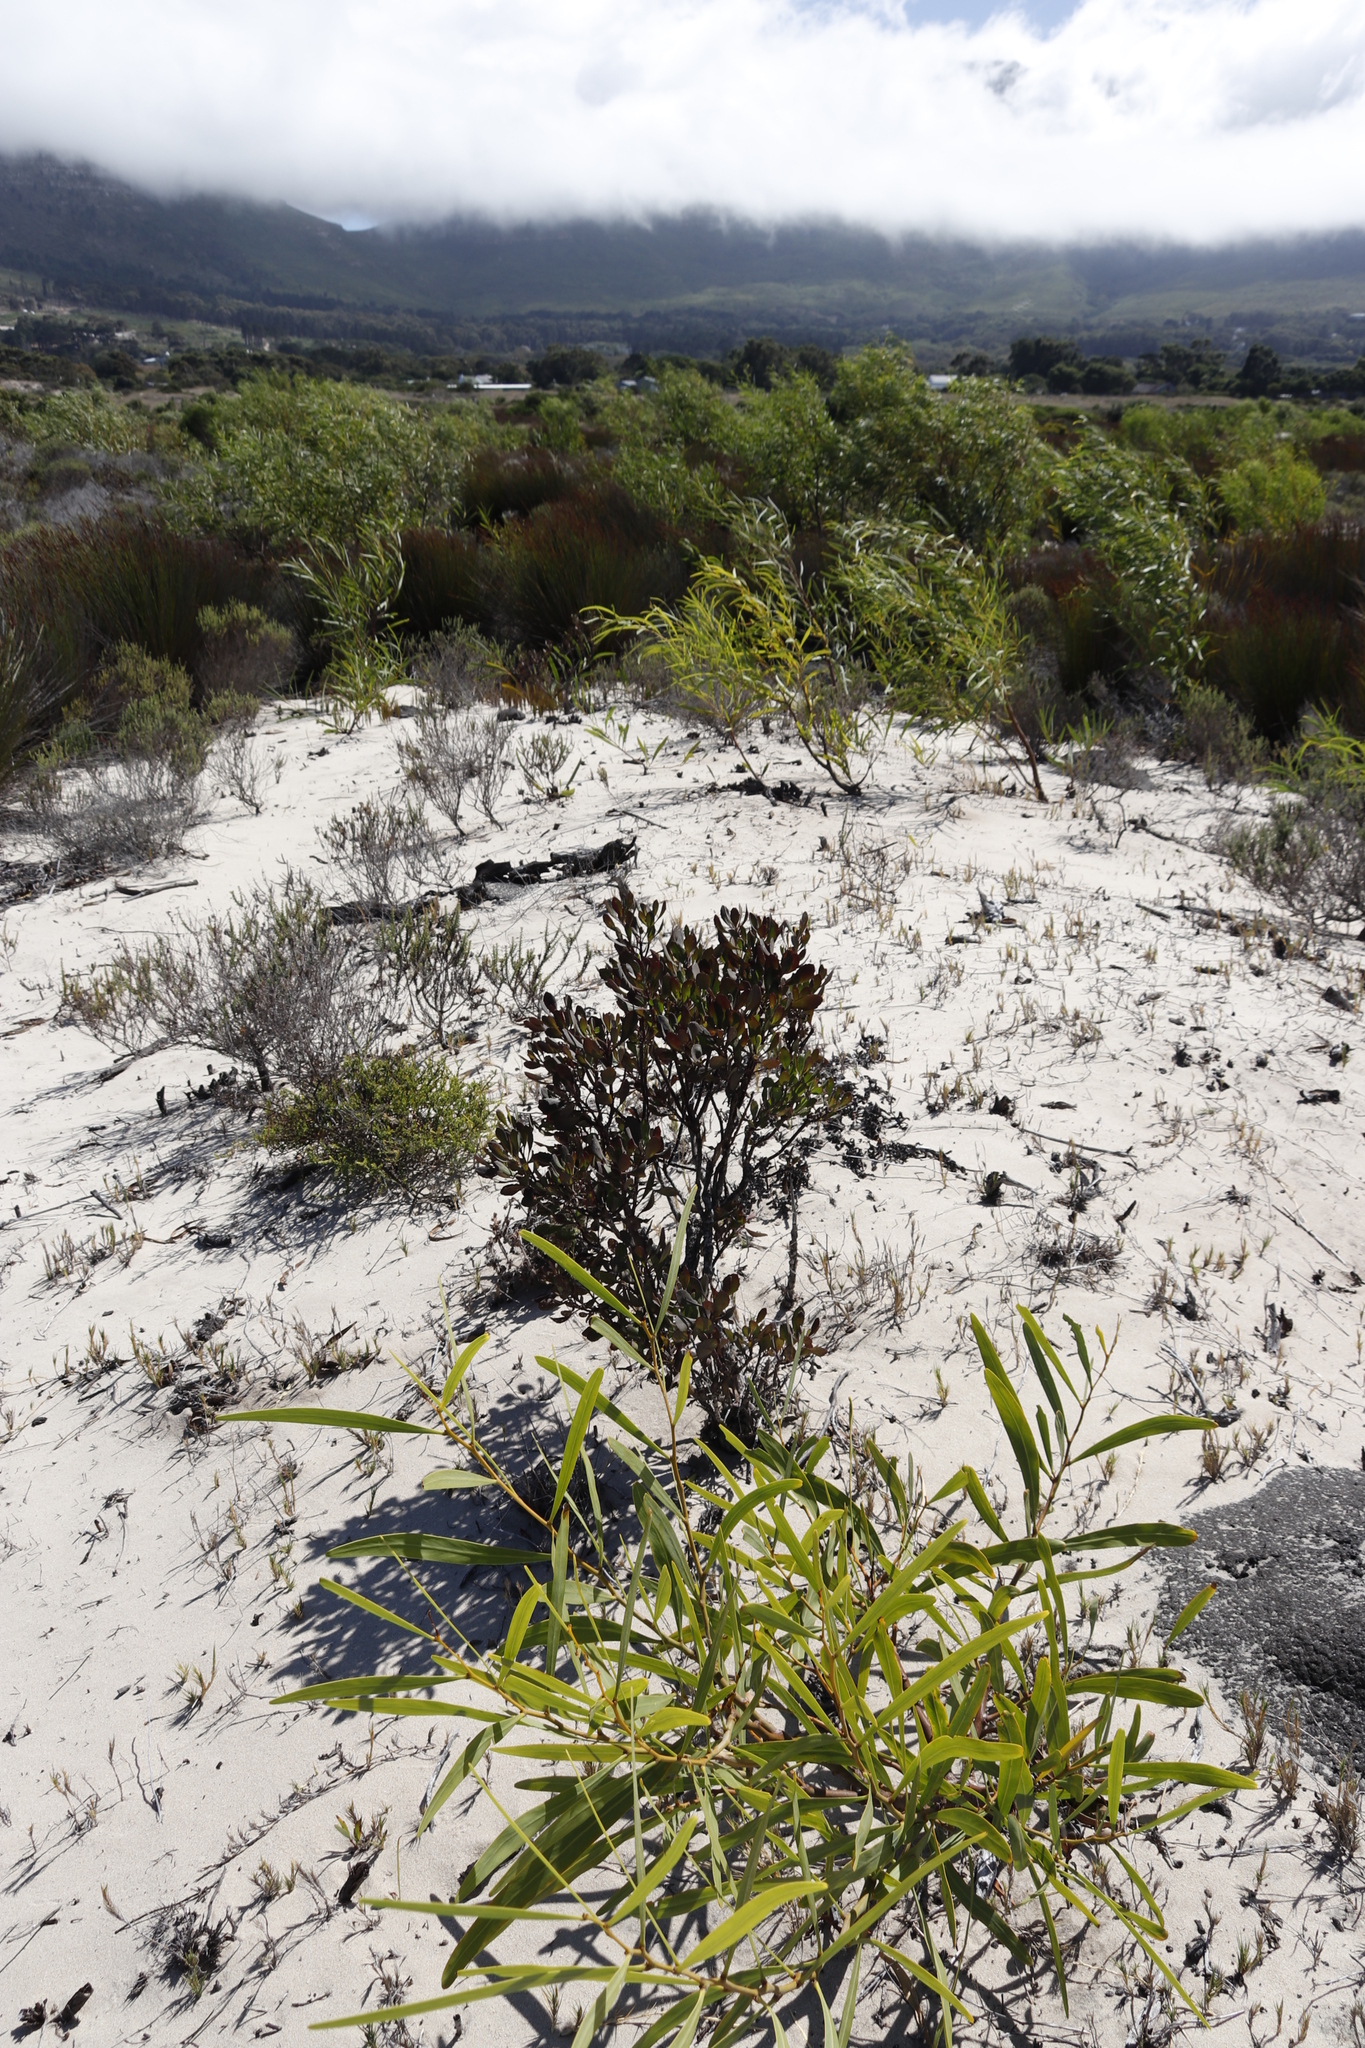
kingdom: Plantae
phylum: Tracheophyta
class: Magnoliopsida
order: Asterales
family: Asteraceae
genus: Osteospermum
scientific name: Osteospermum moniliferum
